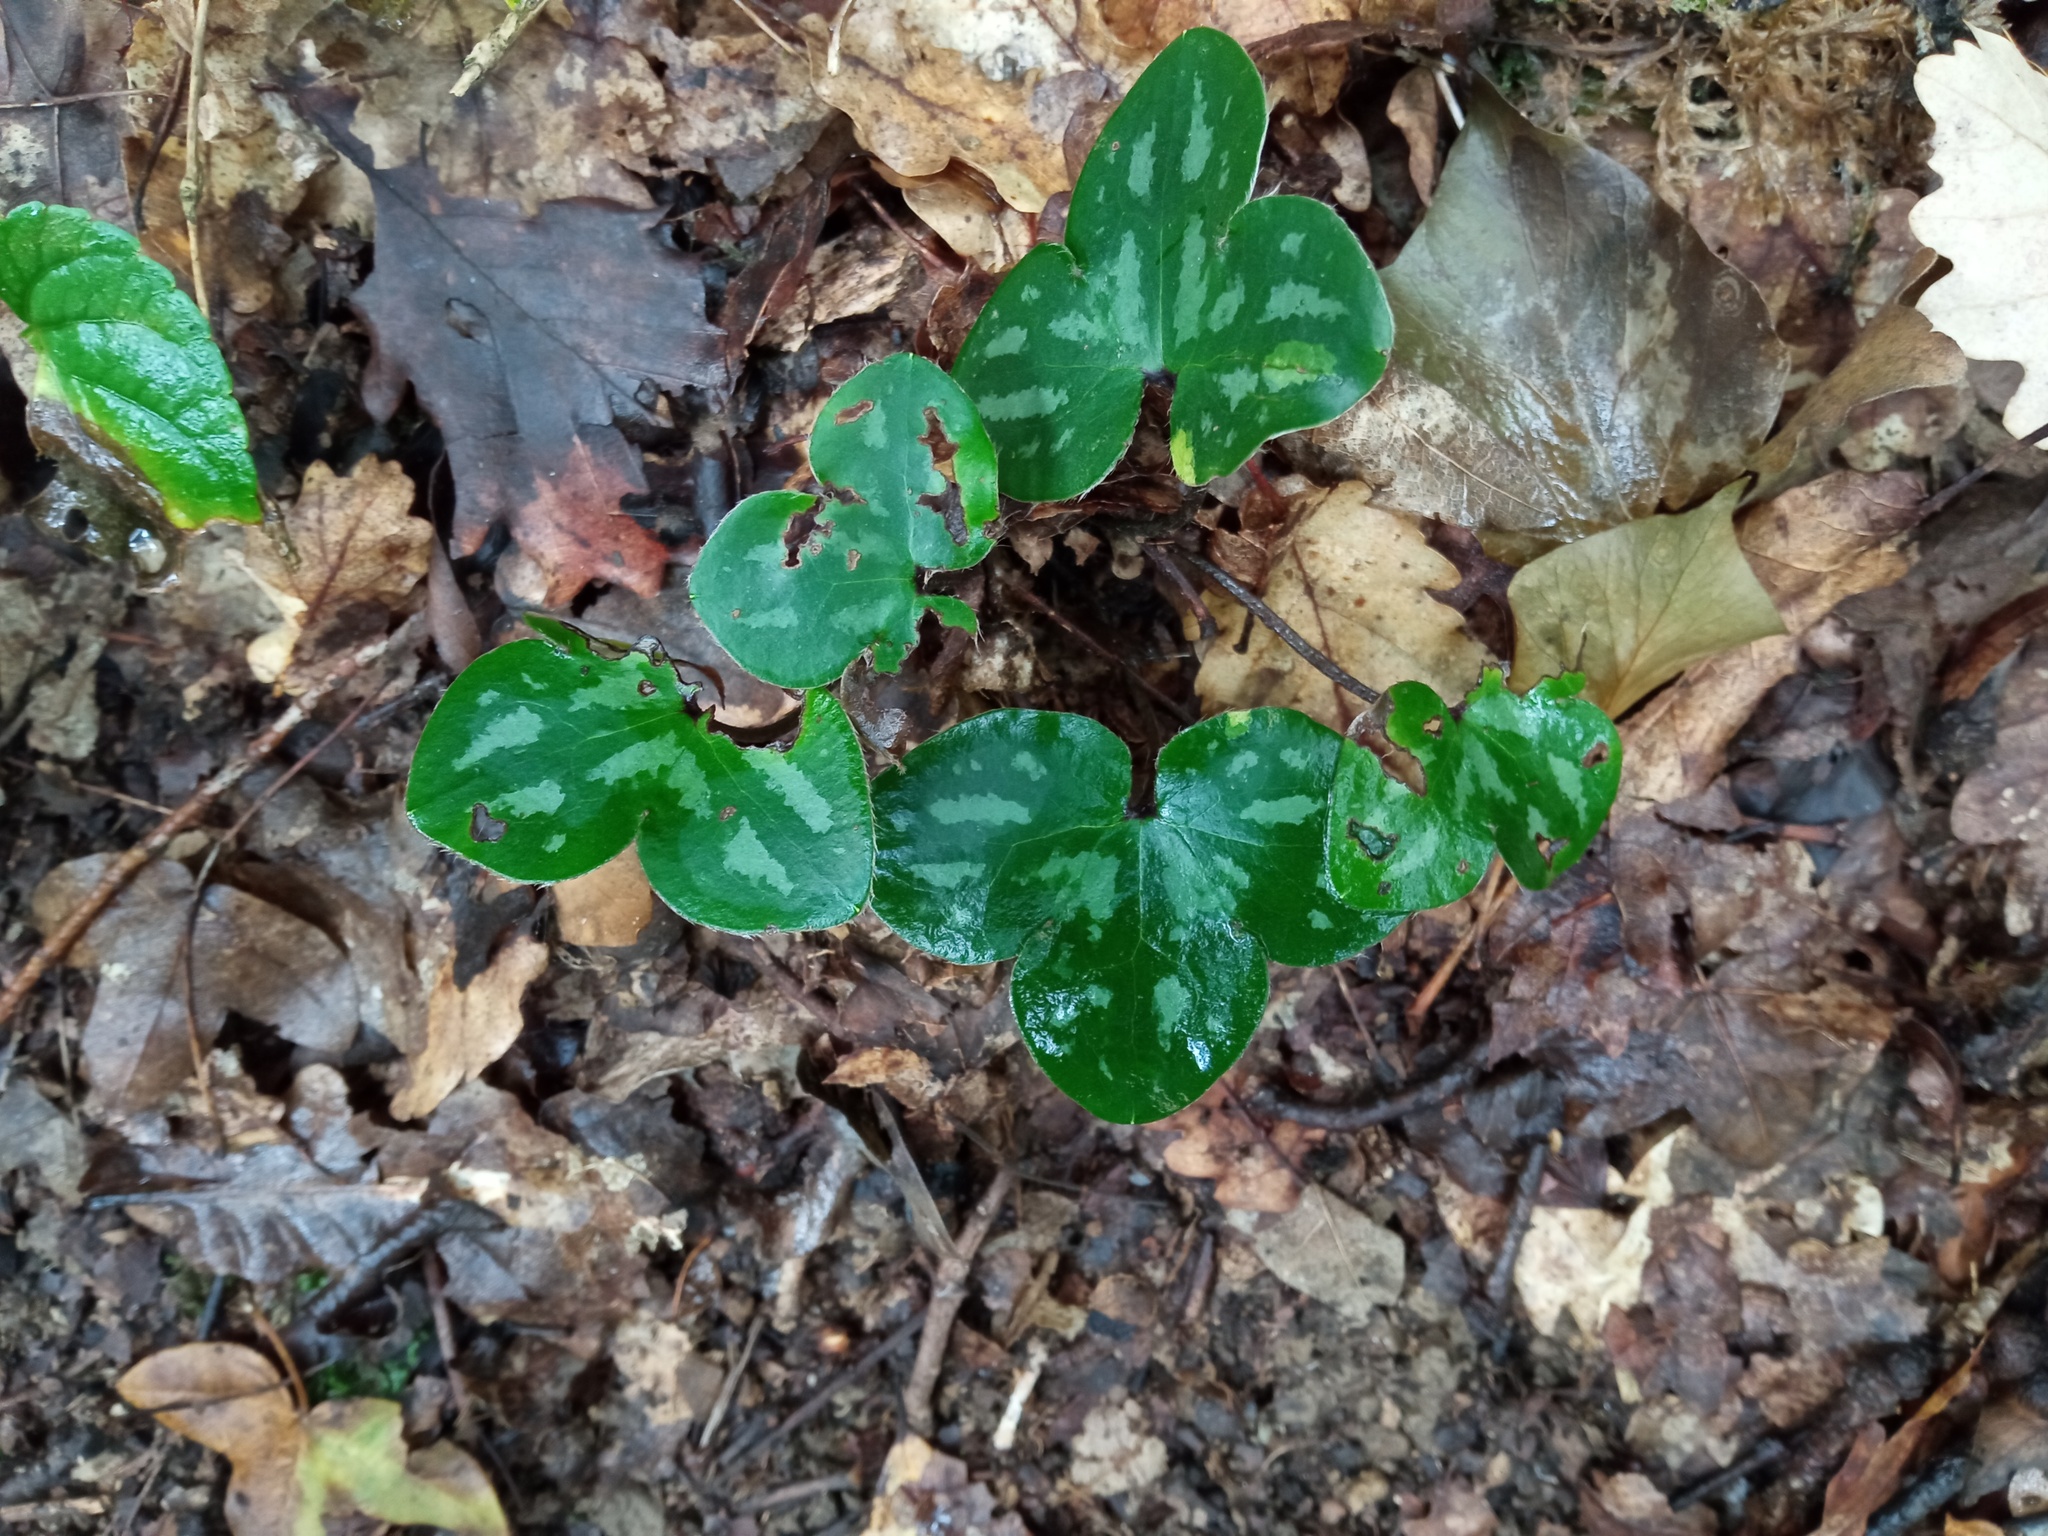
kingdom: Plantae
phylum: Tracheophyta
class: Magnoliopsida
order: Ranunculales
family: Ranunculaceae
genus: Hepatica
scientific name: Hepatica nobilis
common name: Liverleaf
